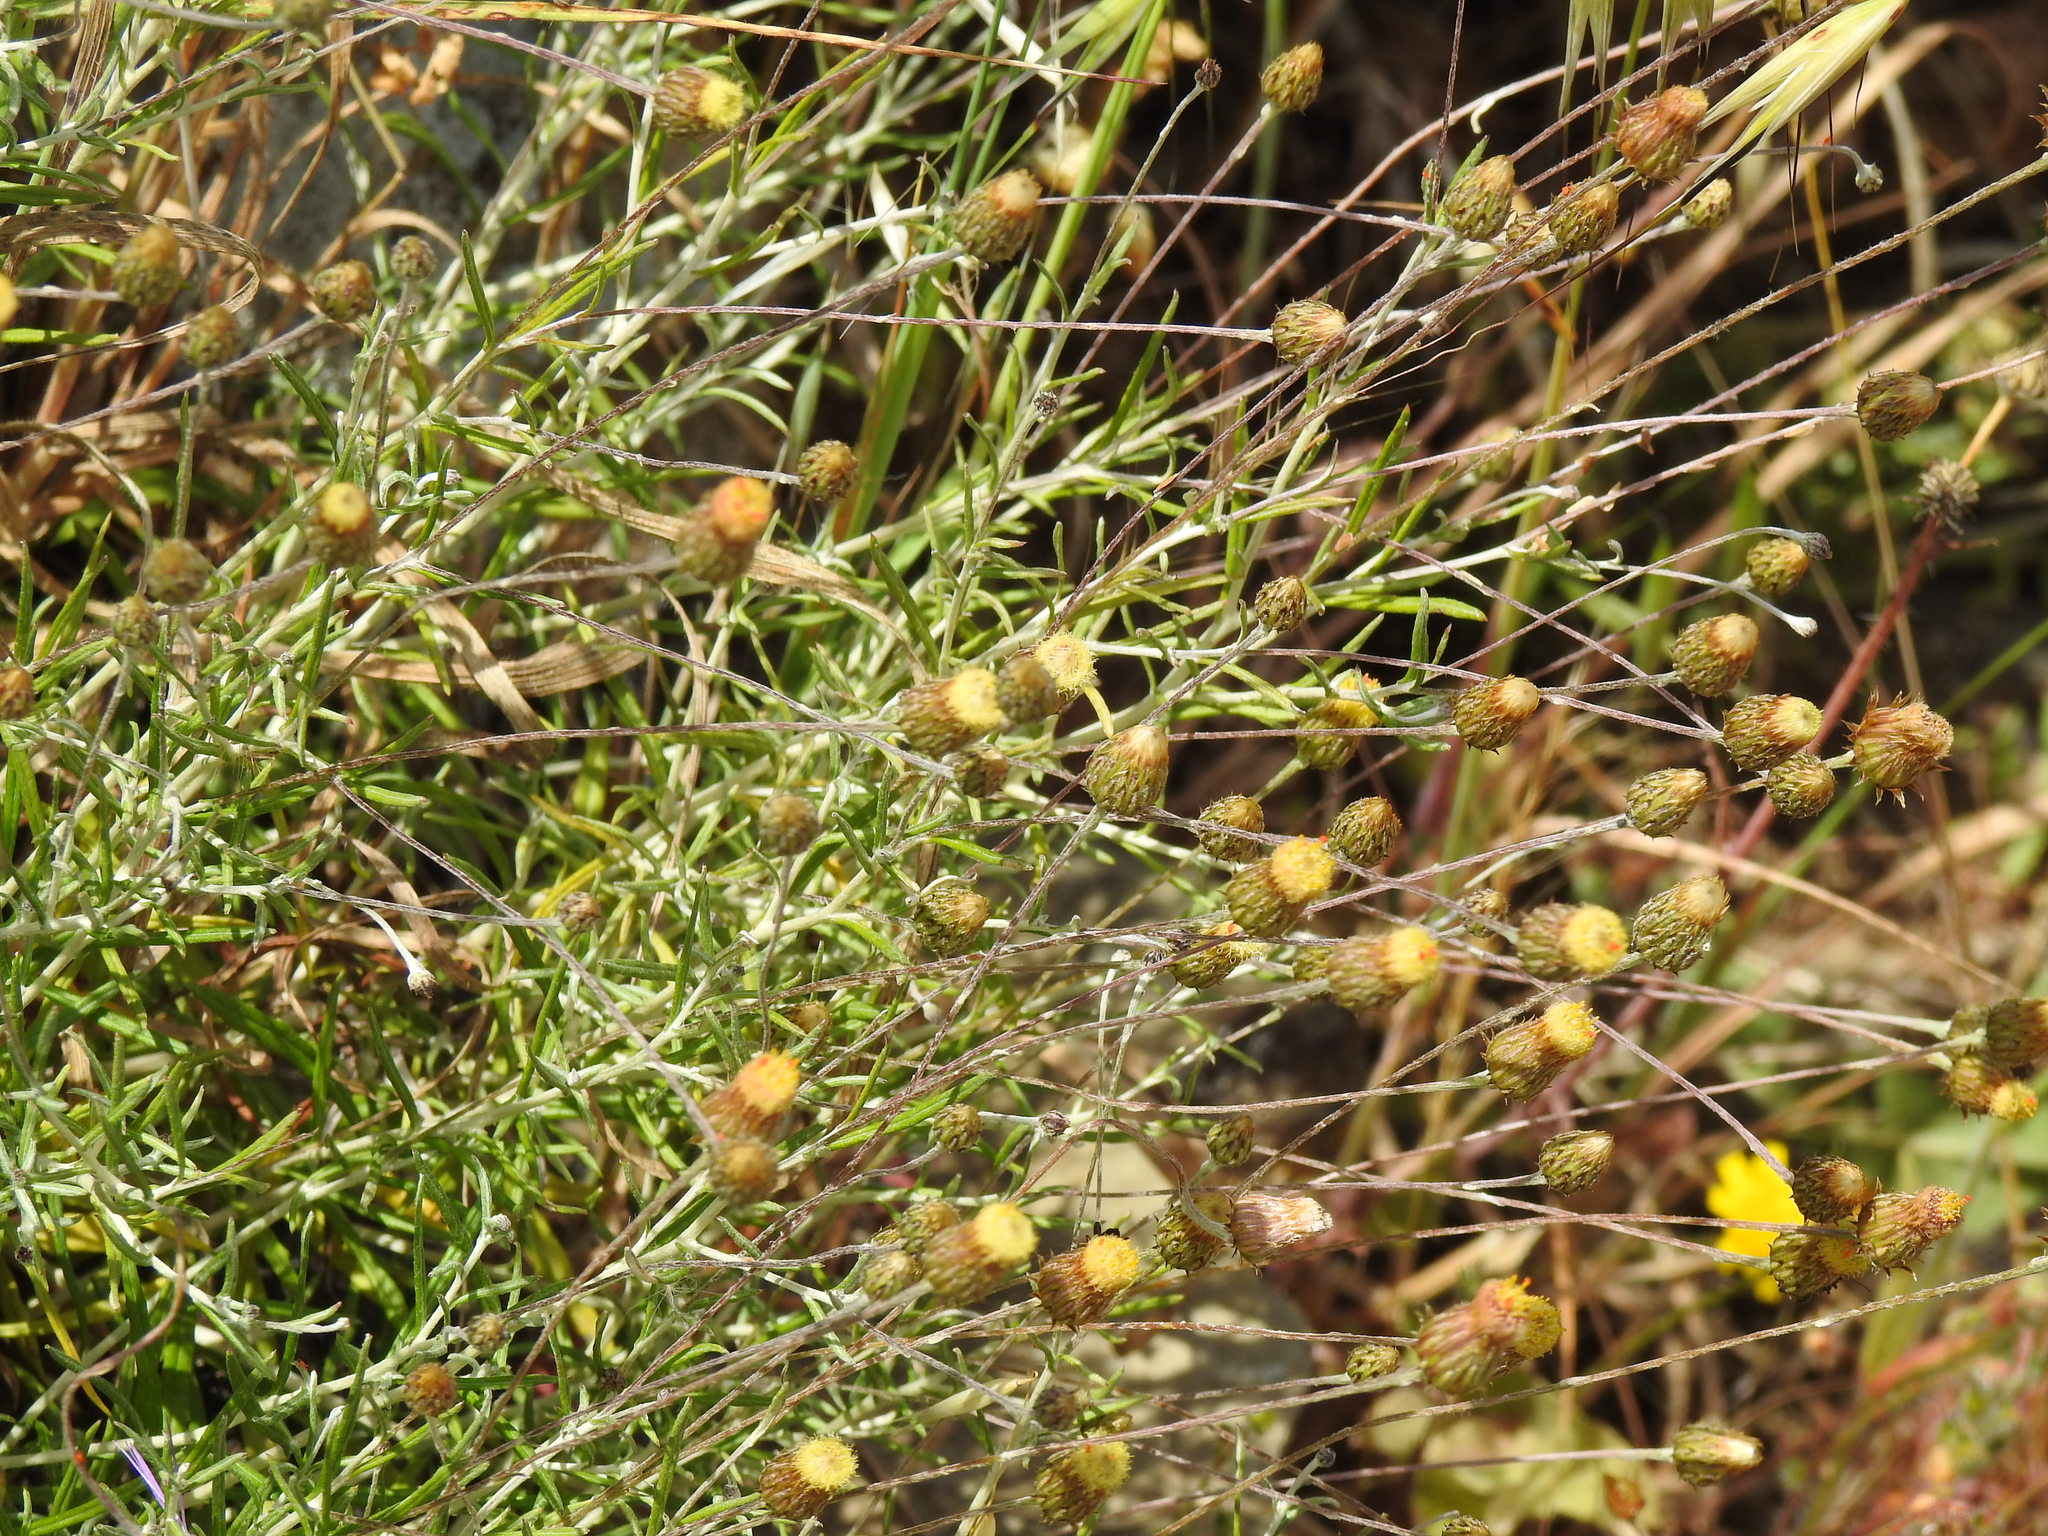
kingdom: Plantae
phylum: Tracheophyta
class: Magnoliopsida
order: Asterales
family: Asteraceae
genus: Phagnalon
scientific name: Phagnalon saxatile
